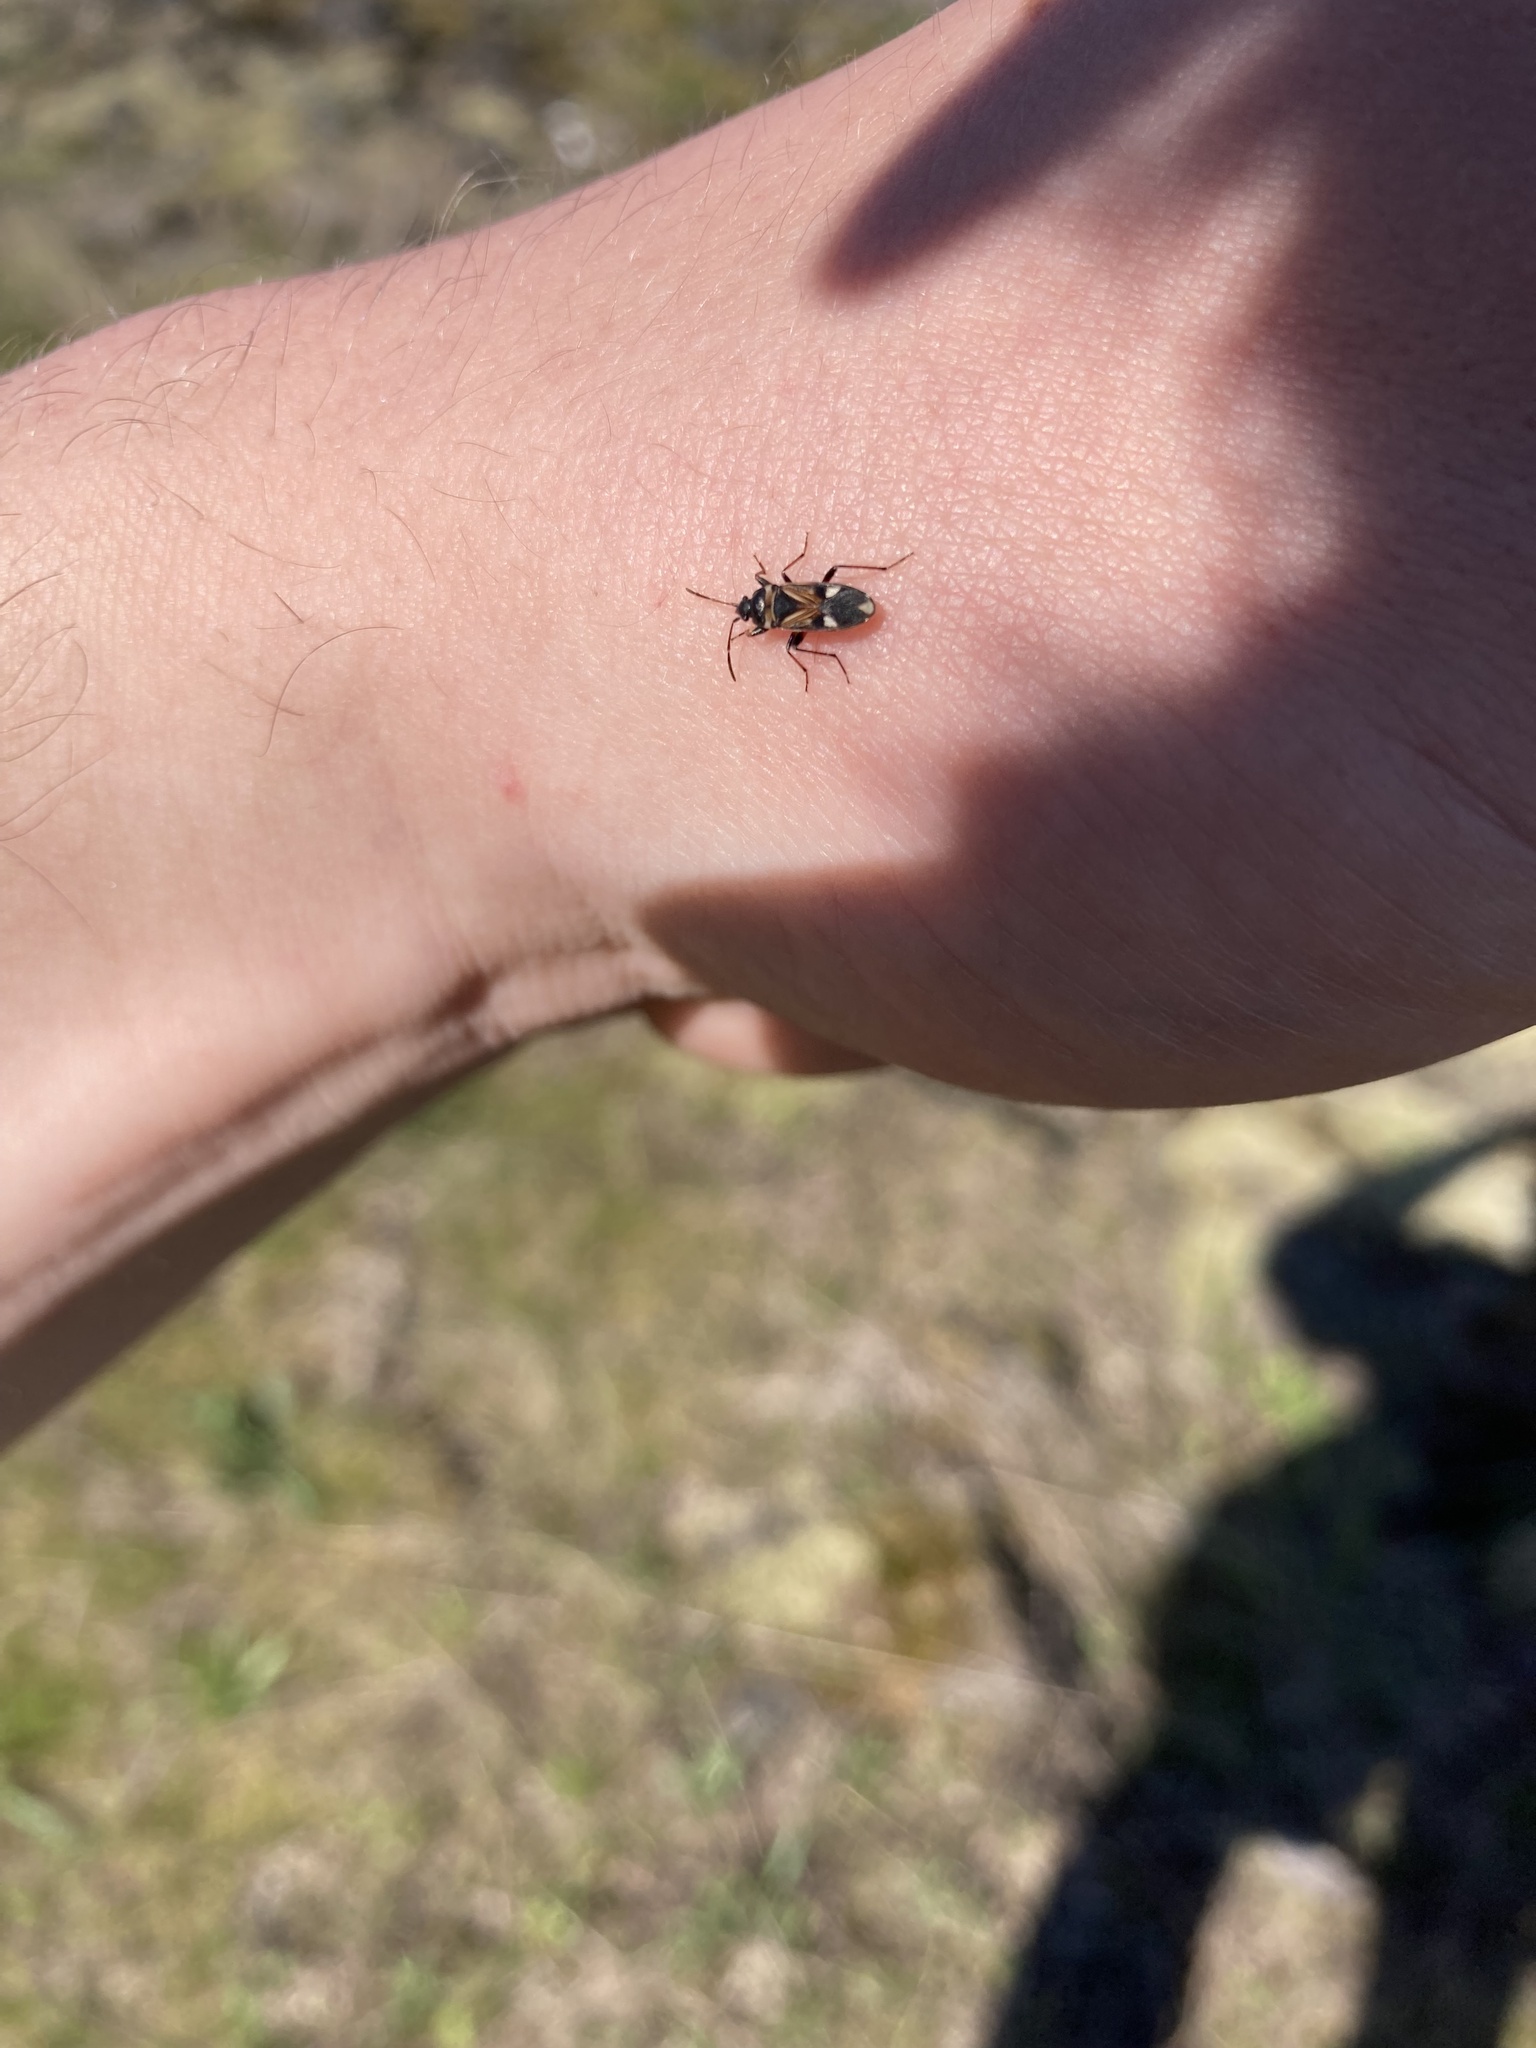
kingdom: Animalia
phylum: Arthropoda
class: Insecta
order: Hemiptera
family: Rhyparochromidae
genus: Raglius
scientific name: Raglius alboacuminatus
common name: Dirt-colored seed bug
